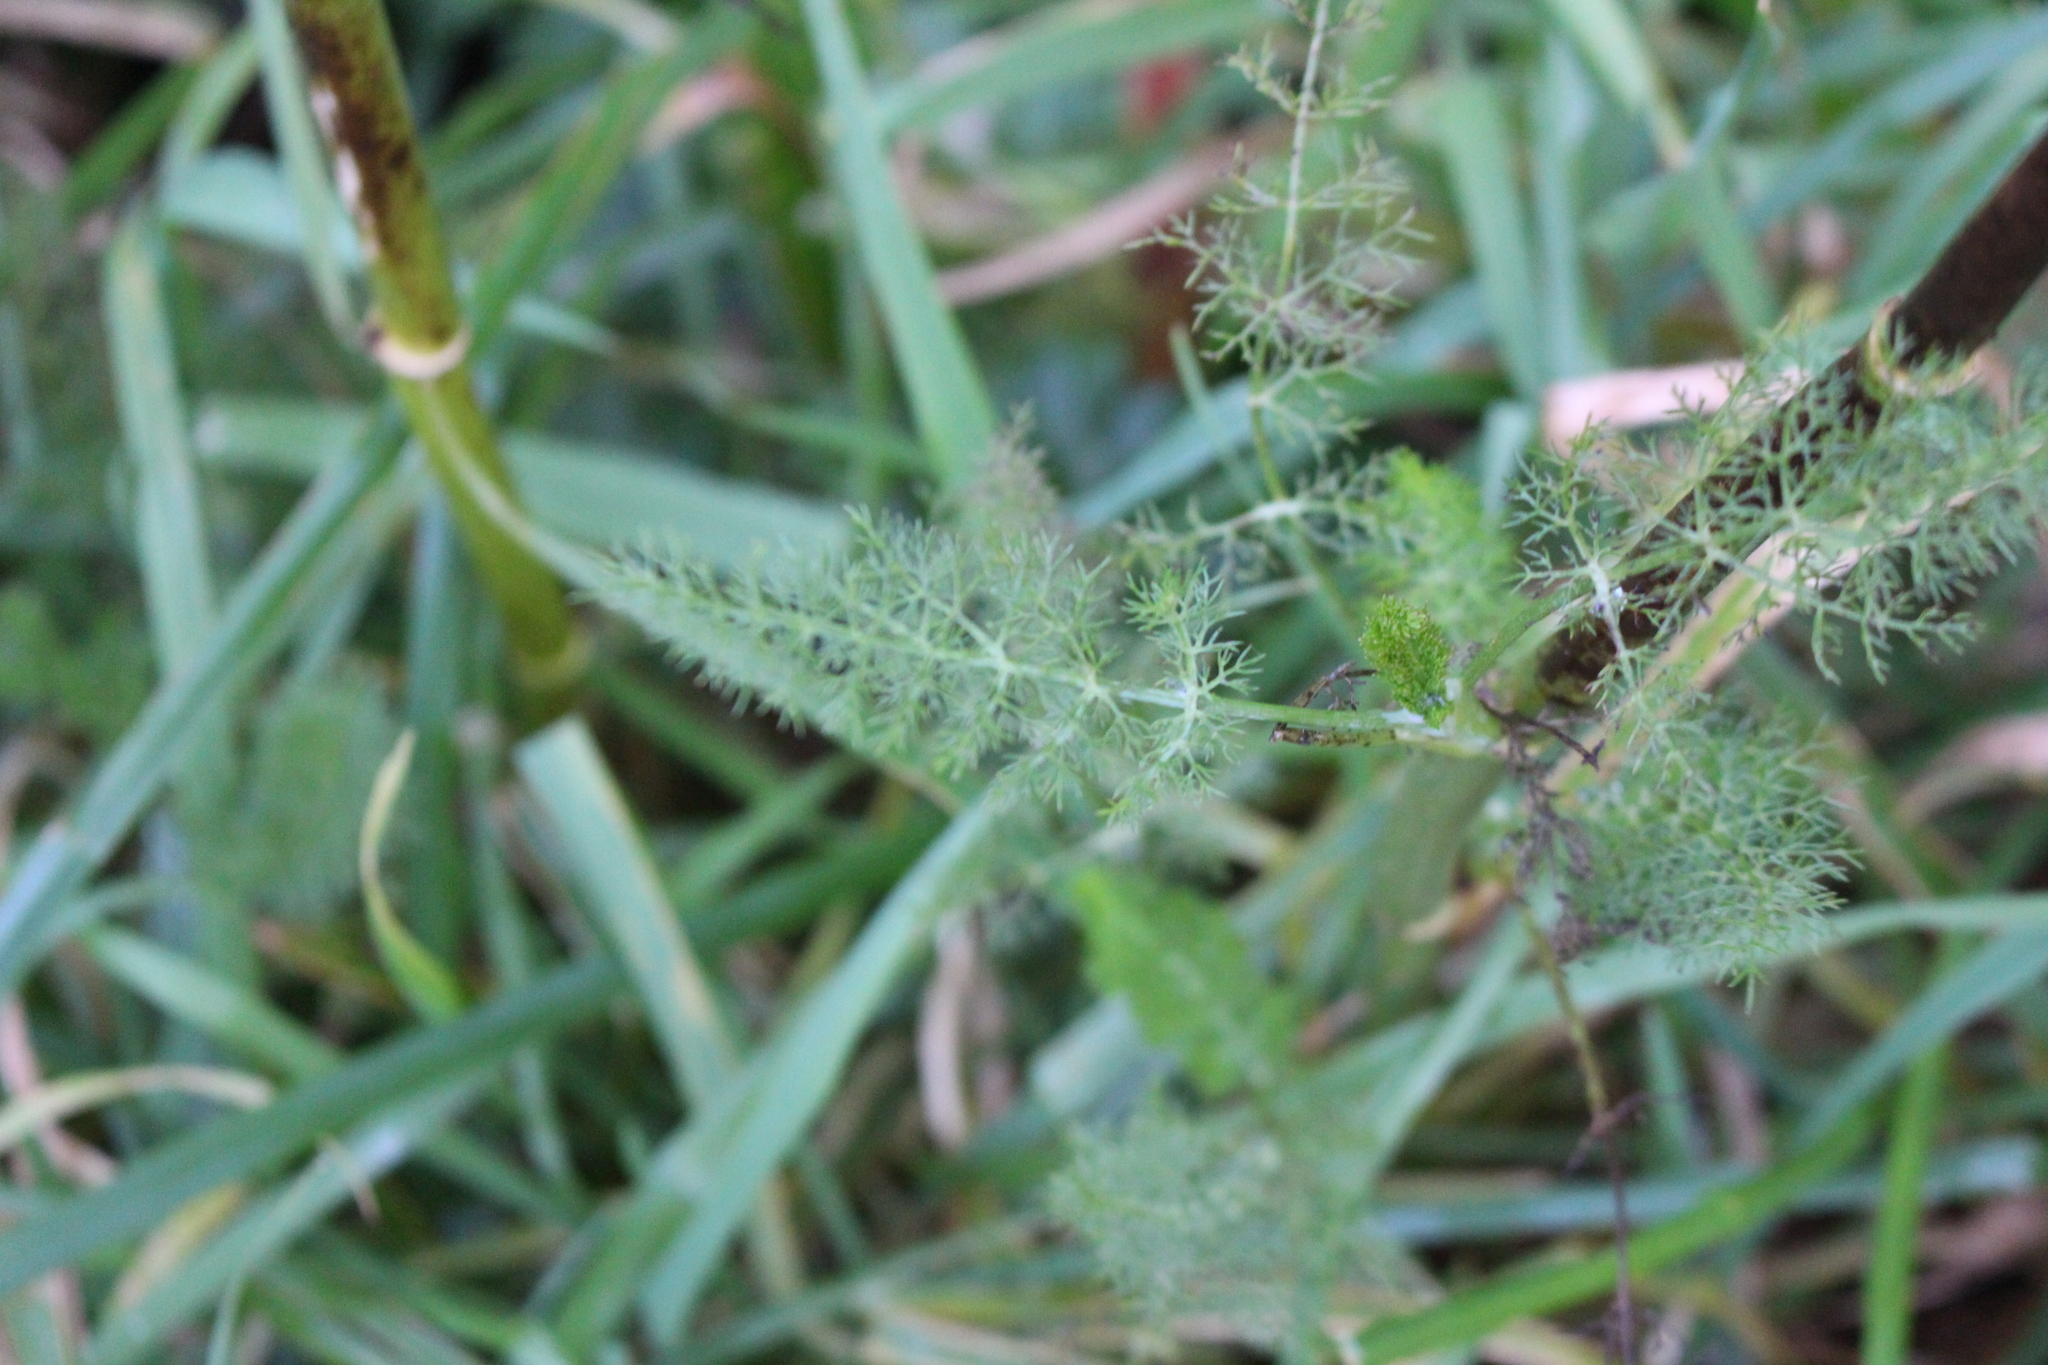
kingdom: Plantae
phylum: Tracheophyta
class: Magnoliopsida
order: Apiales
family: Apiaceae
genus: Foeniculum
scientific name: Foeniculum vulgare
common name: Fennel
